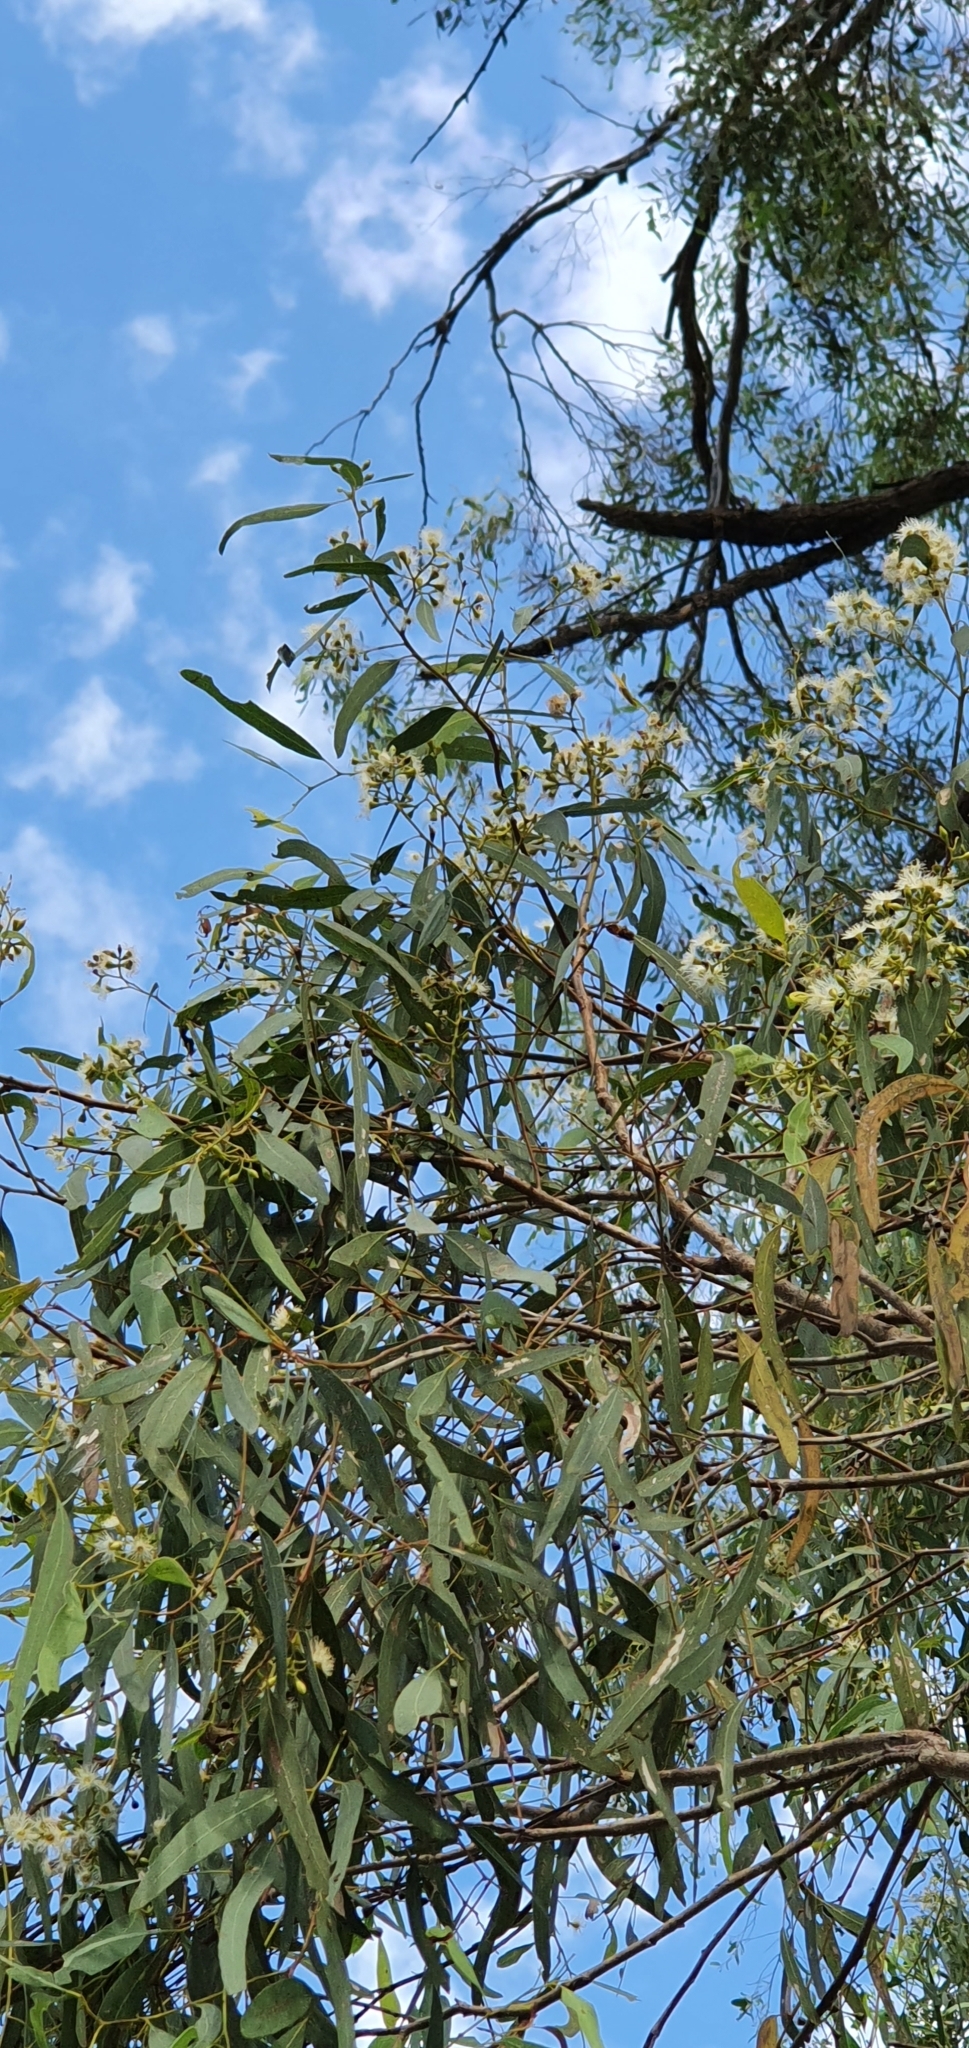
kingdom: Plantae
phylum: Tracheophyta
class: Magnoliopsida
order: Myrtales
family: Myrtaceae
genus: Eucalyptus
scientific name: Eucalyptus crebra
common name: Narrowleaf red ironbark
